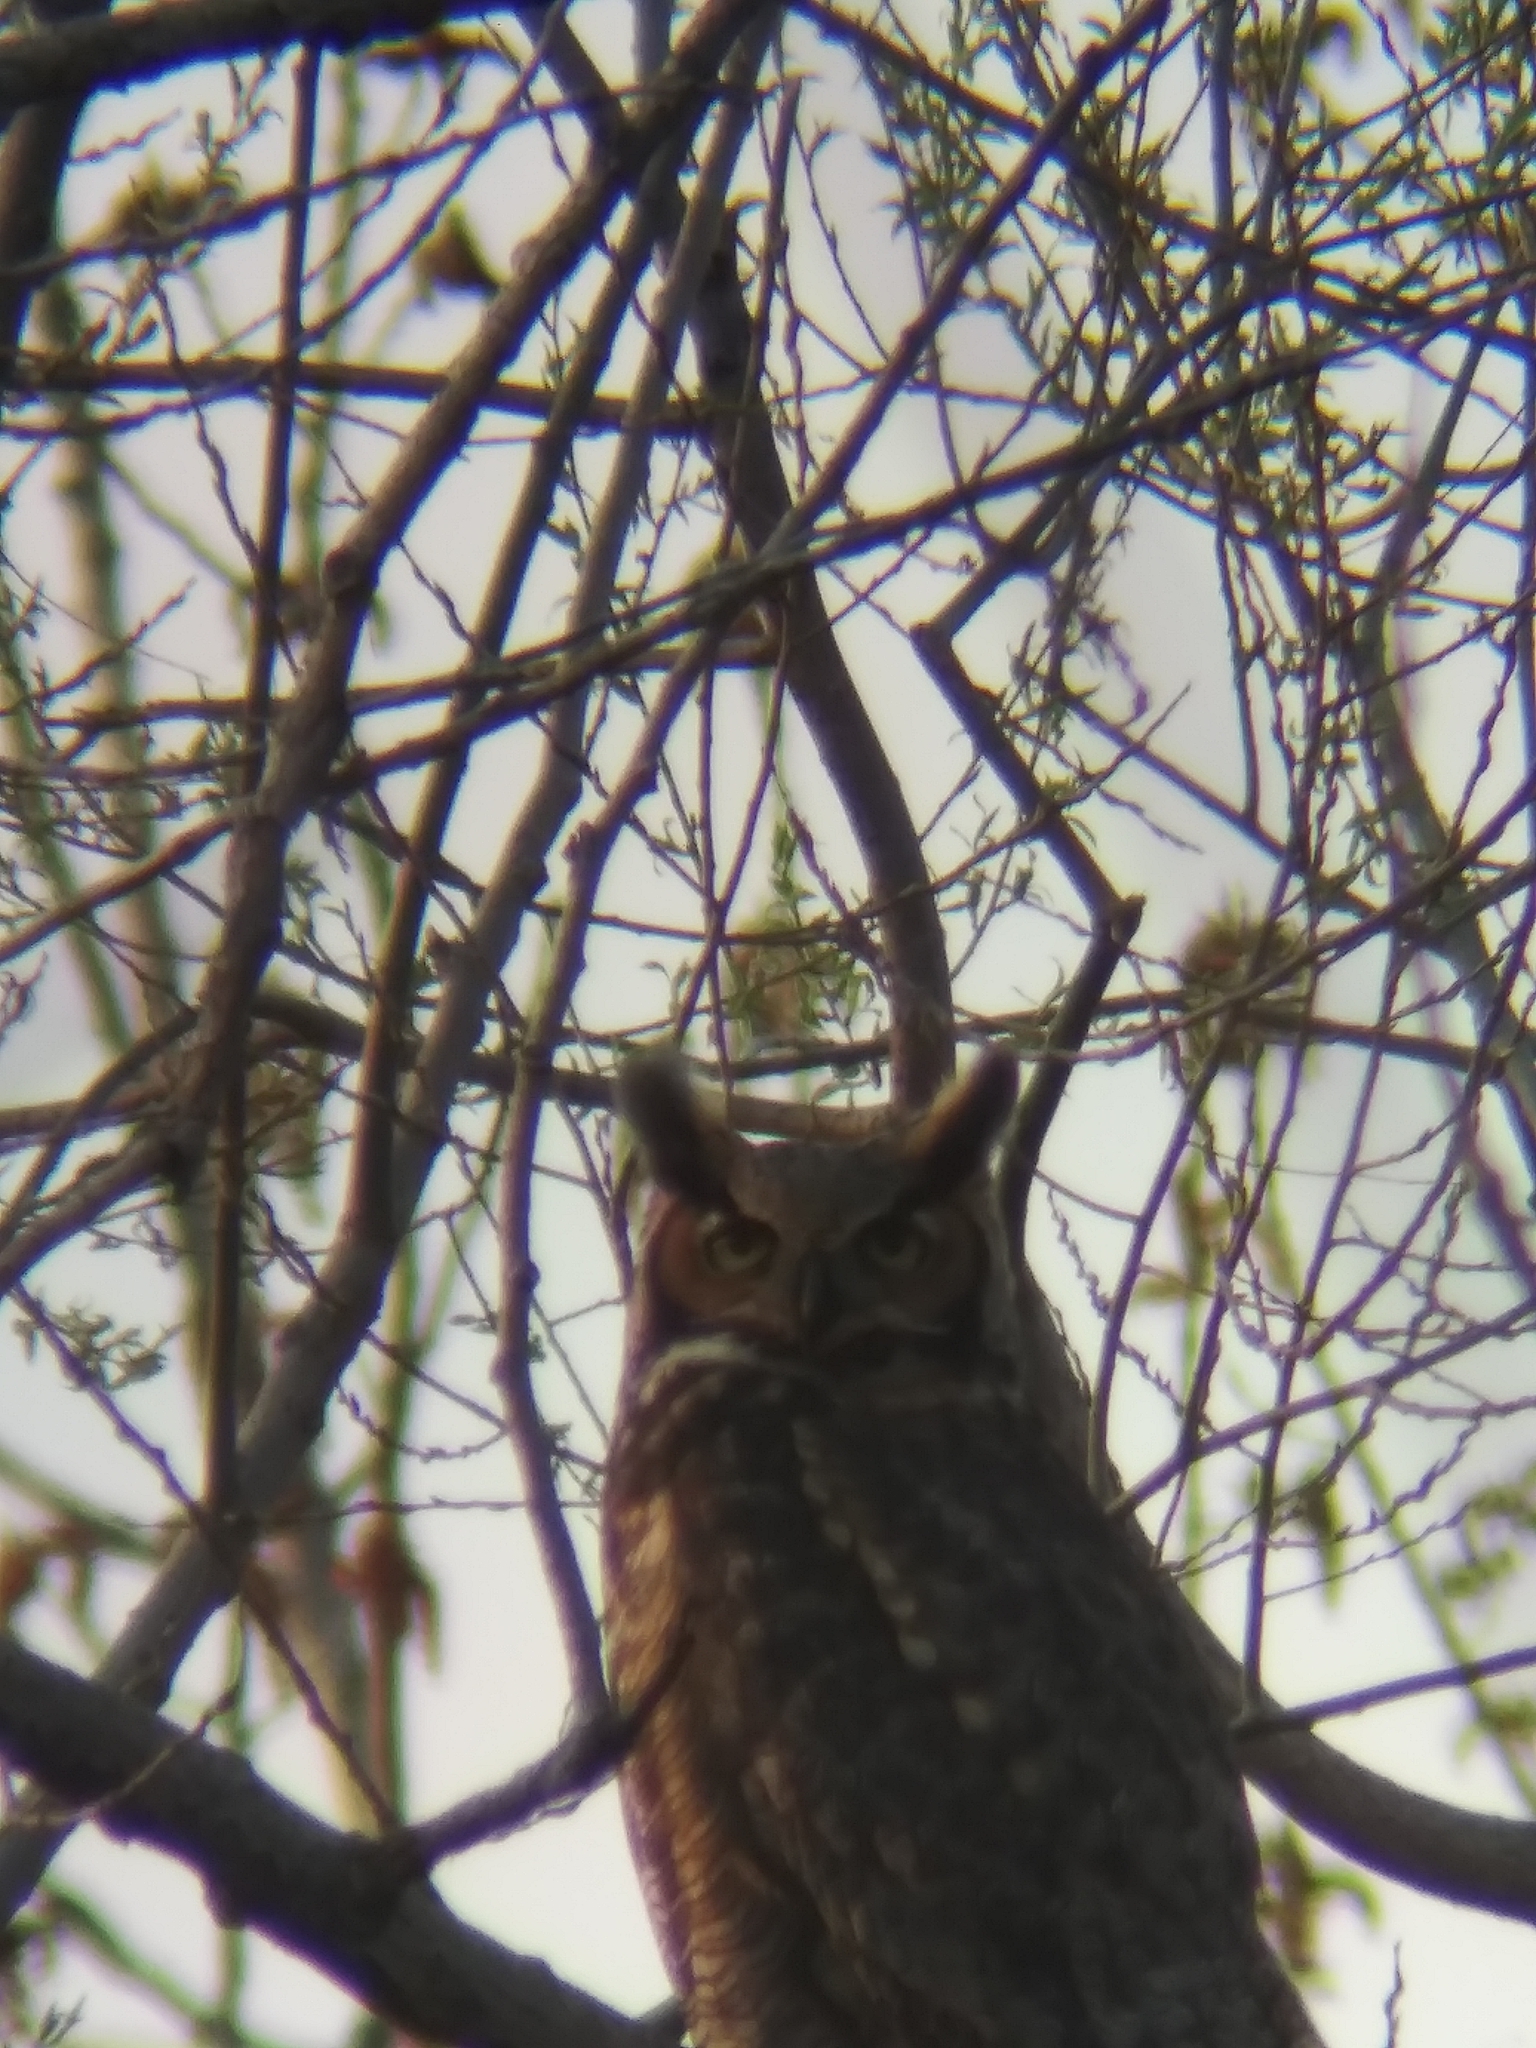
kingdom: Animalia
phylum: Chordata
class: Aves
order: Strigiformes
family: Strigidae
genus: Bubo
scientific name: Bubo virginianus
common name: Great horned owl
